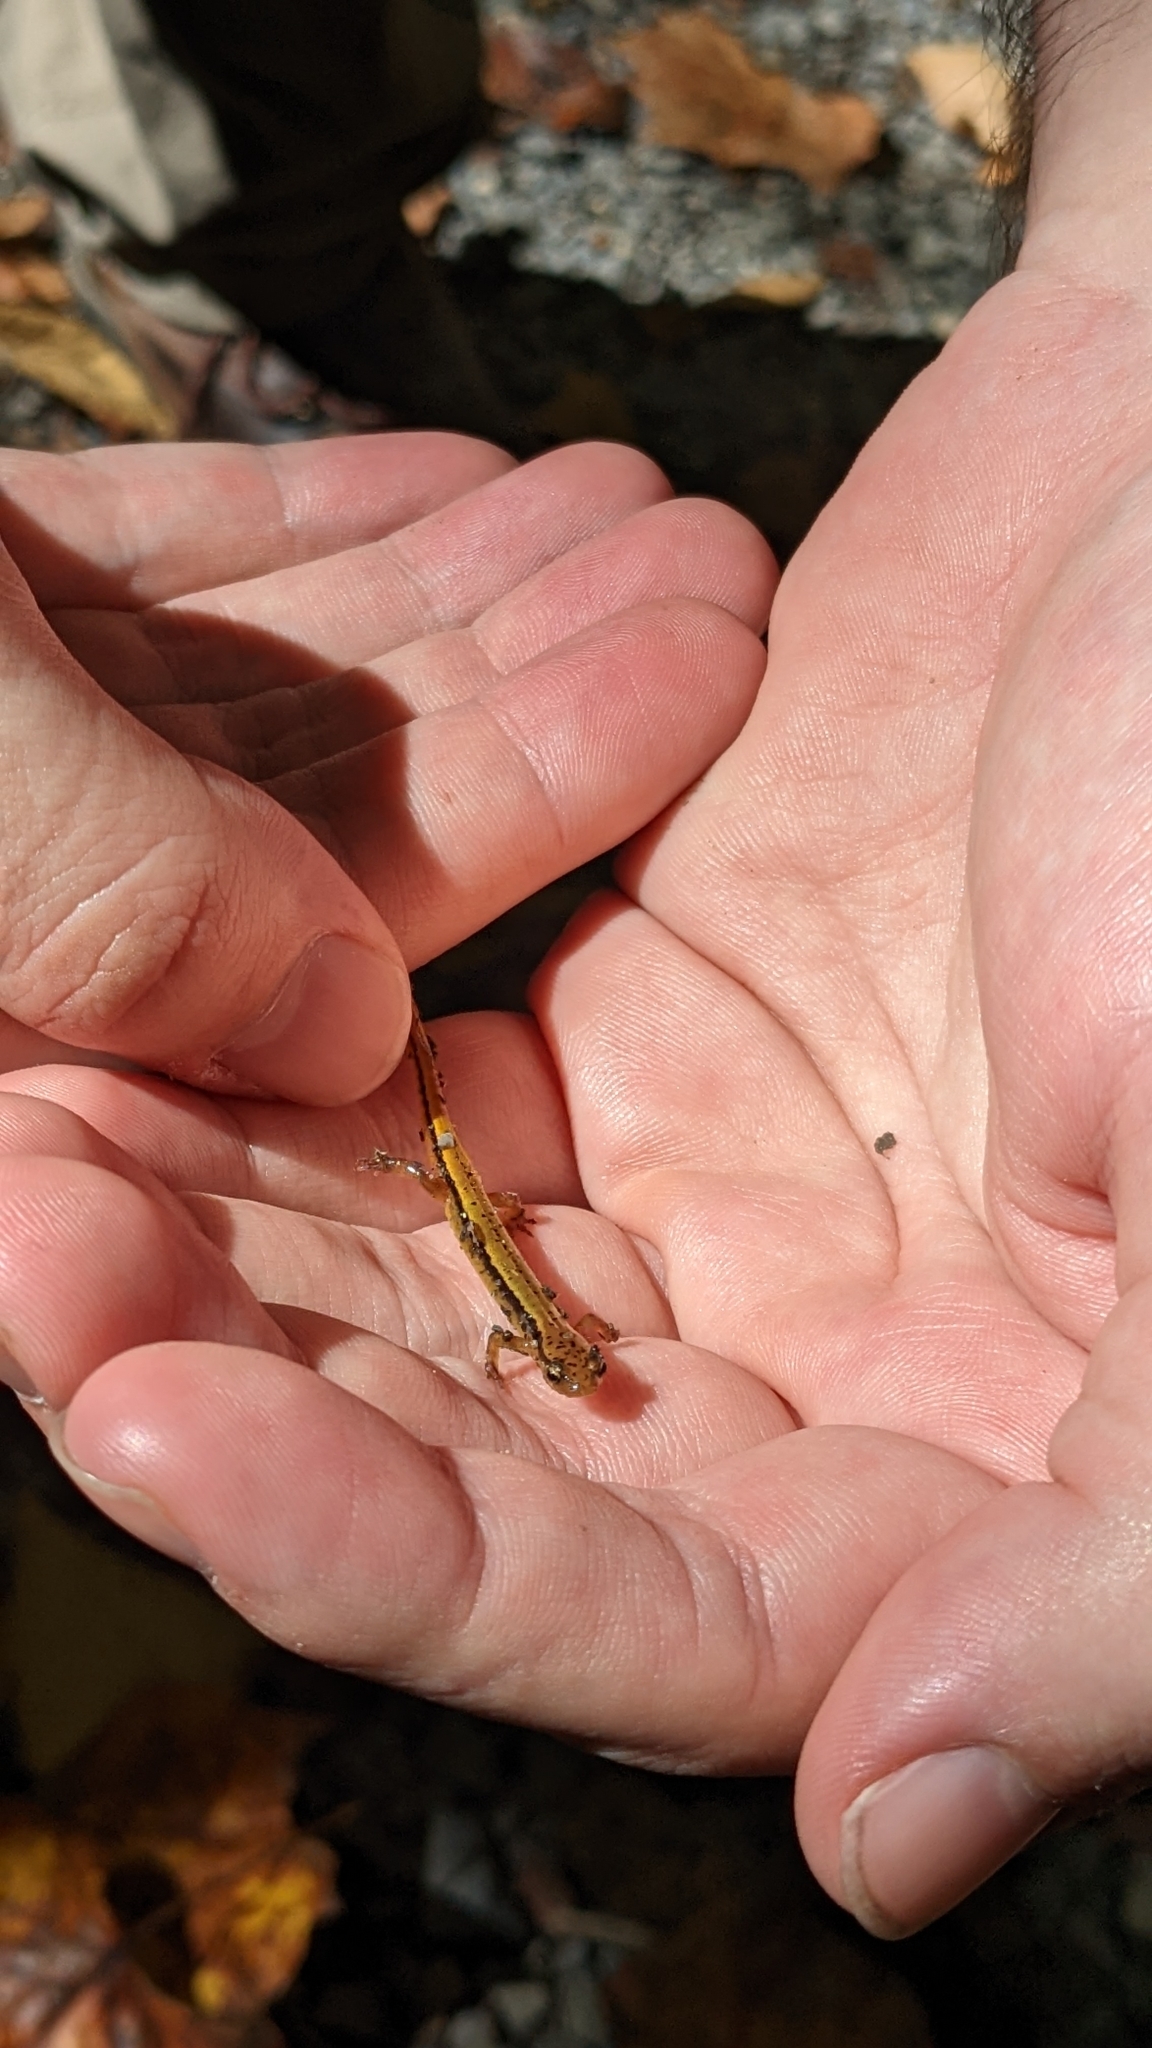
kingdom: Animalia
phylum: Chordata
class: Amphibia
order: Caudata
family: Plethodontidae
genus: Eurycea
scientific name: Eurycea wilderae
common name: Blue ridge two-lined salamander
